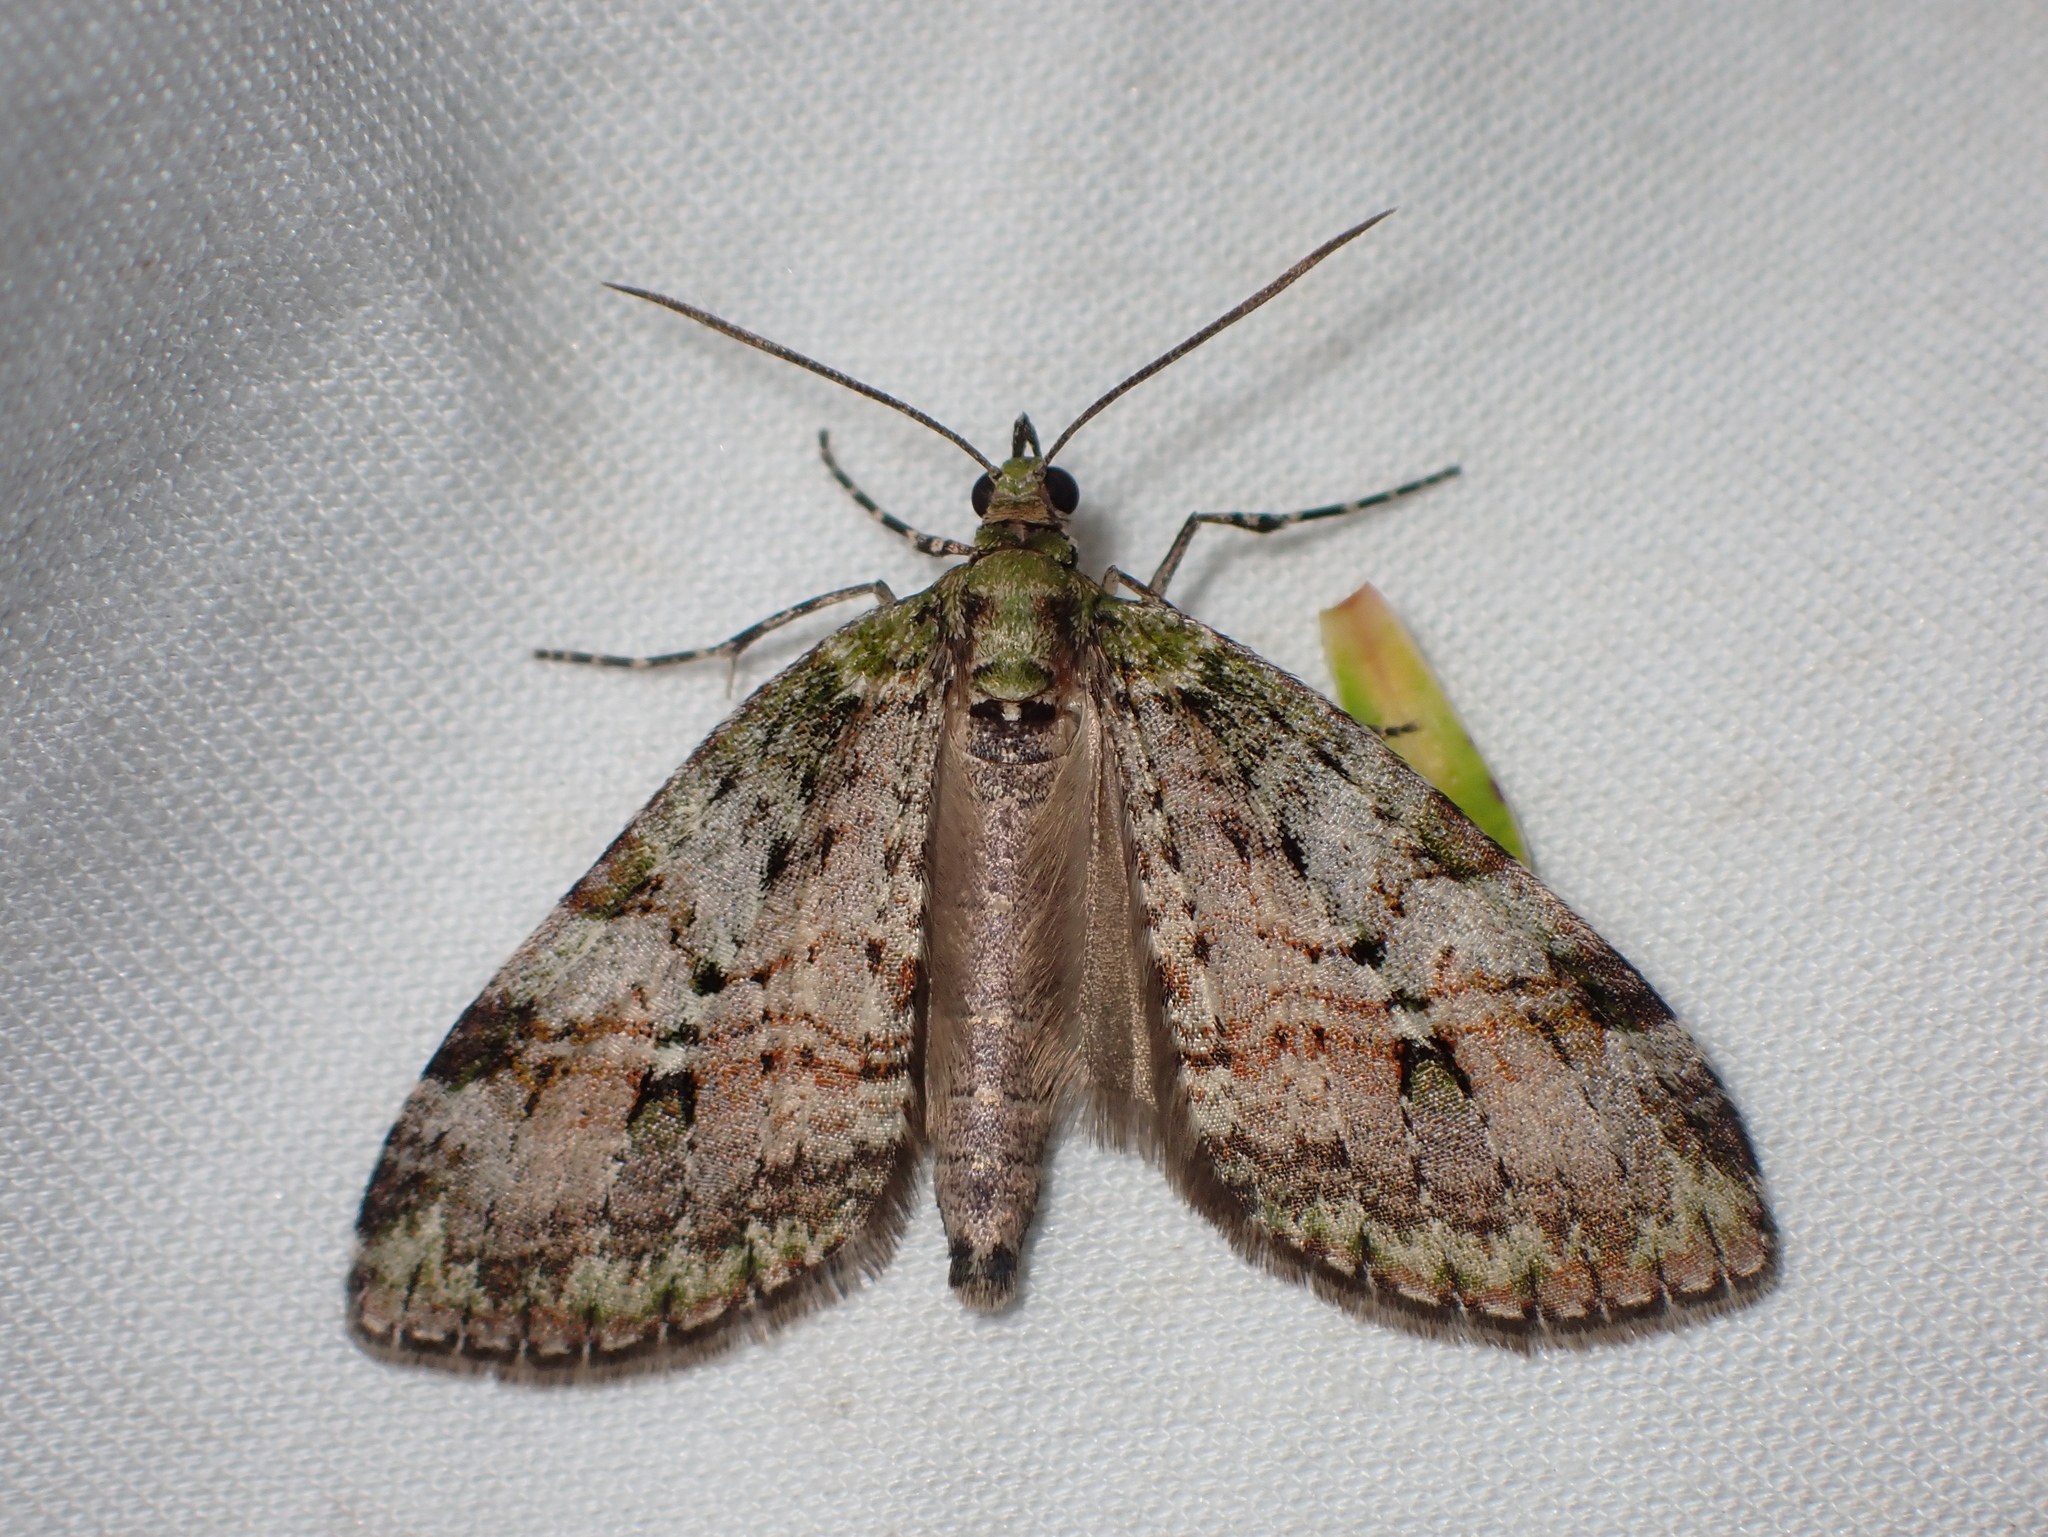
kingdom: Animalia
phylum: Arthropoda
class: Insecta
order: Lepidoptera
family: Geometridae
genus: Tatosoma
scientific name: Tatosoma topea
